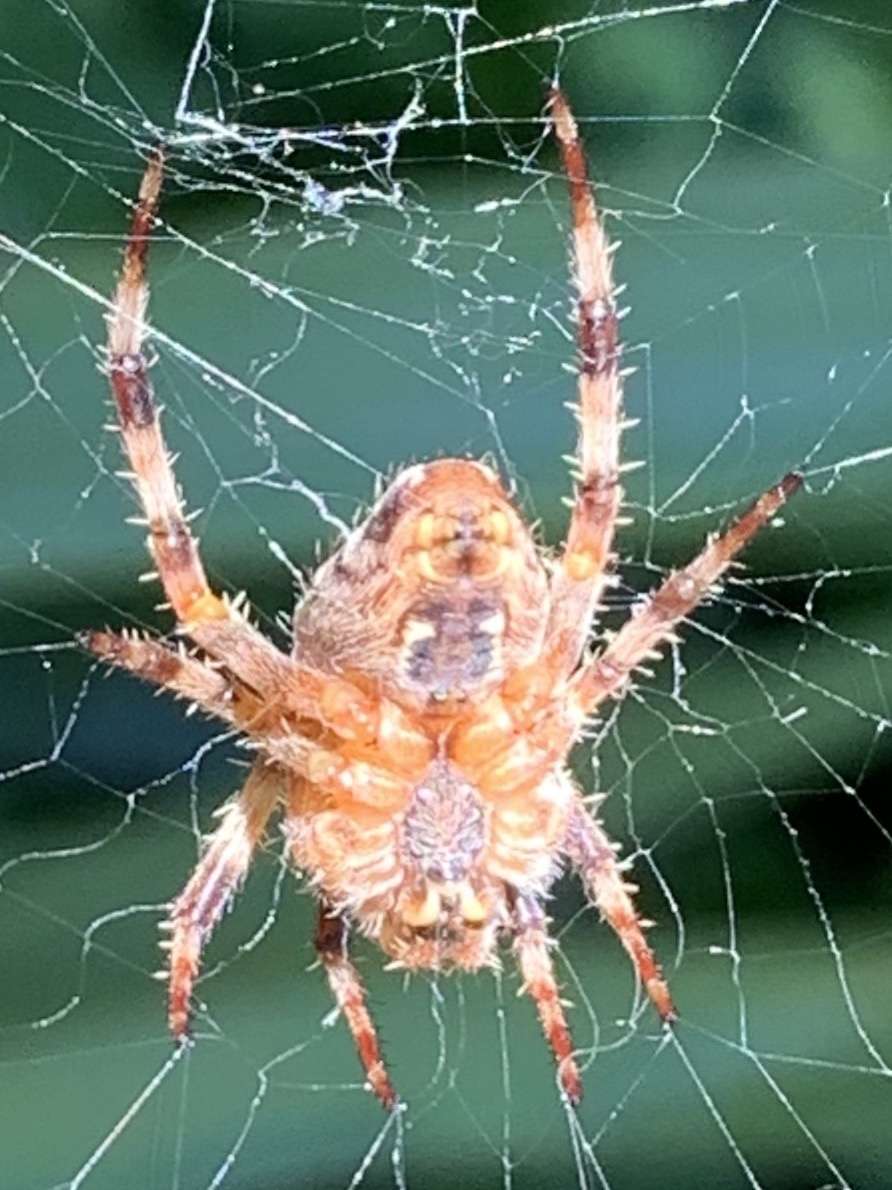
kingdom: Animalia
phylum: Arthropoda
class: Arachnida
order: Araneae
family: Araneidae
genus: Araneus
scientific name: Araneus diadematus
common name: Cross orbweaver
